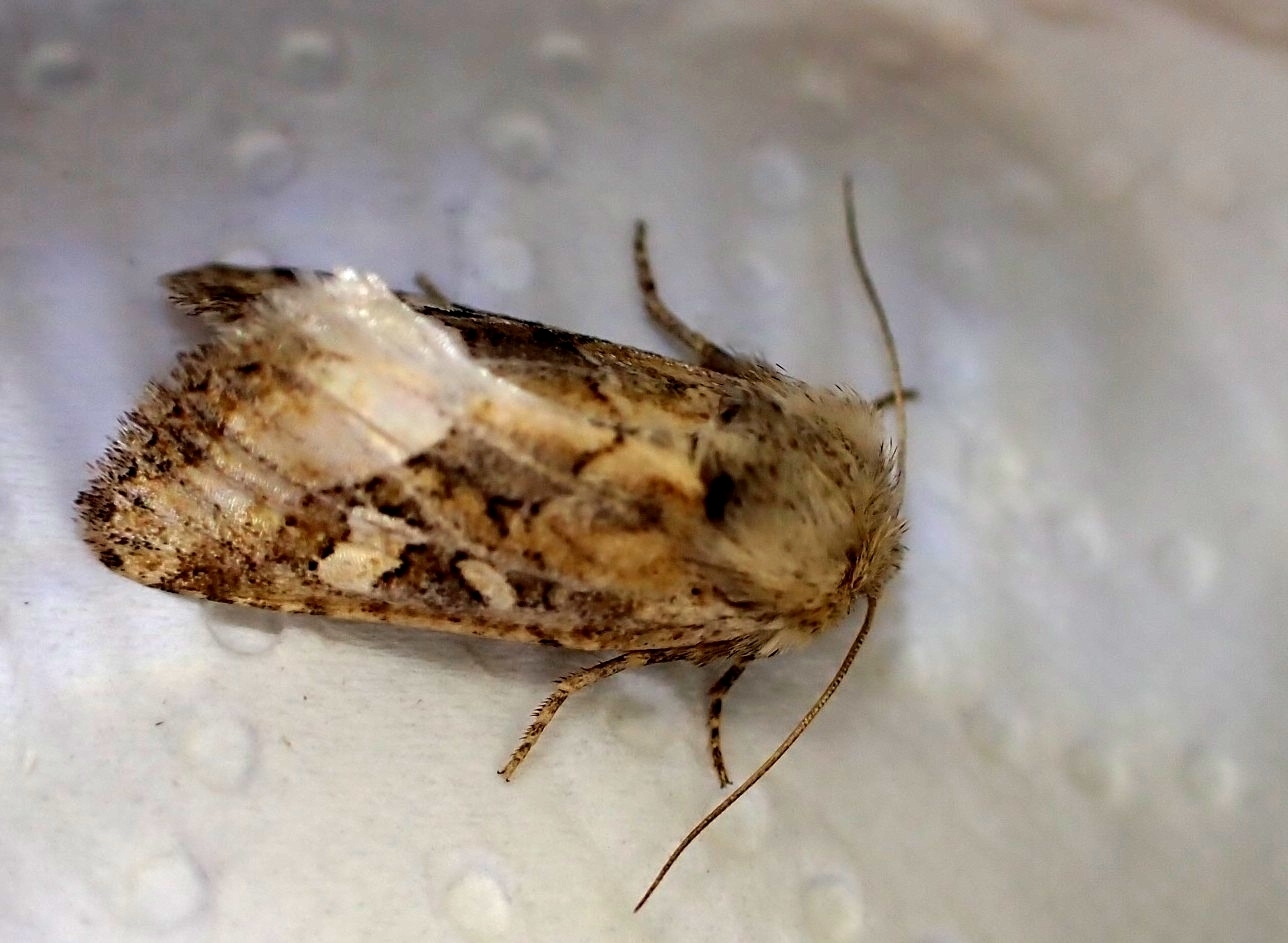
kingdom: Animalia
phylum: Arthropoda
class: Insecta
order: Lepidoptera
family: Noctuidae
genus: Luperina
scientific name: Luperina dumerilii
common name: Dumeril's rustic
